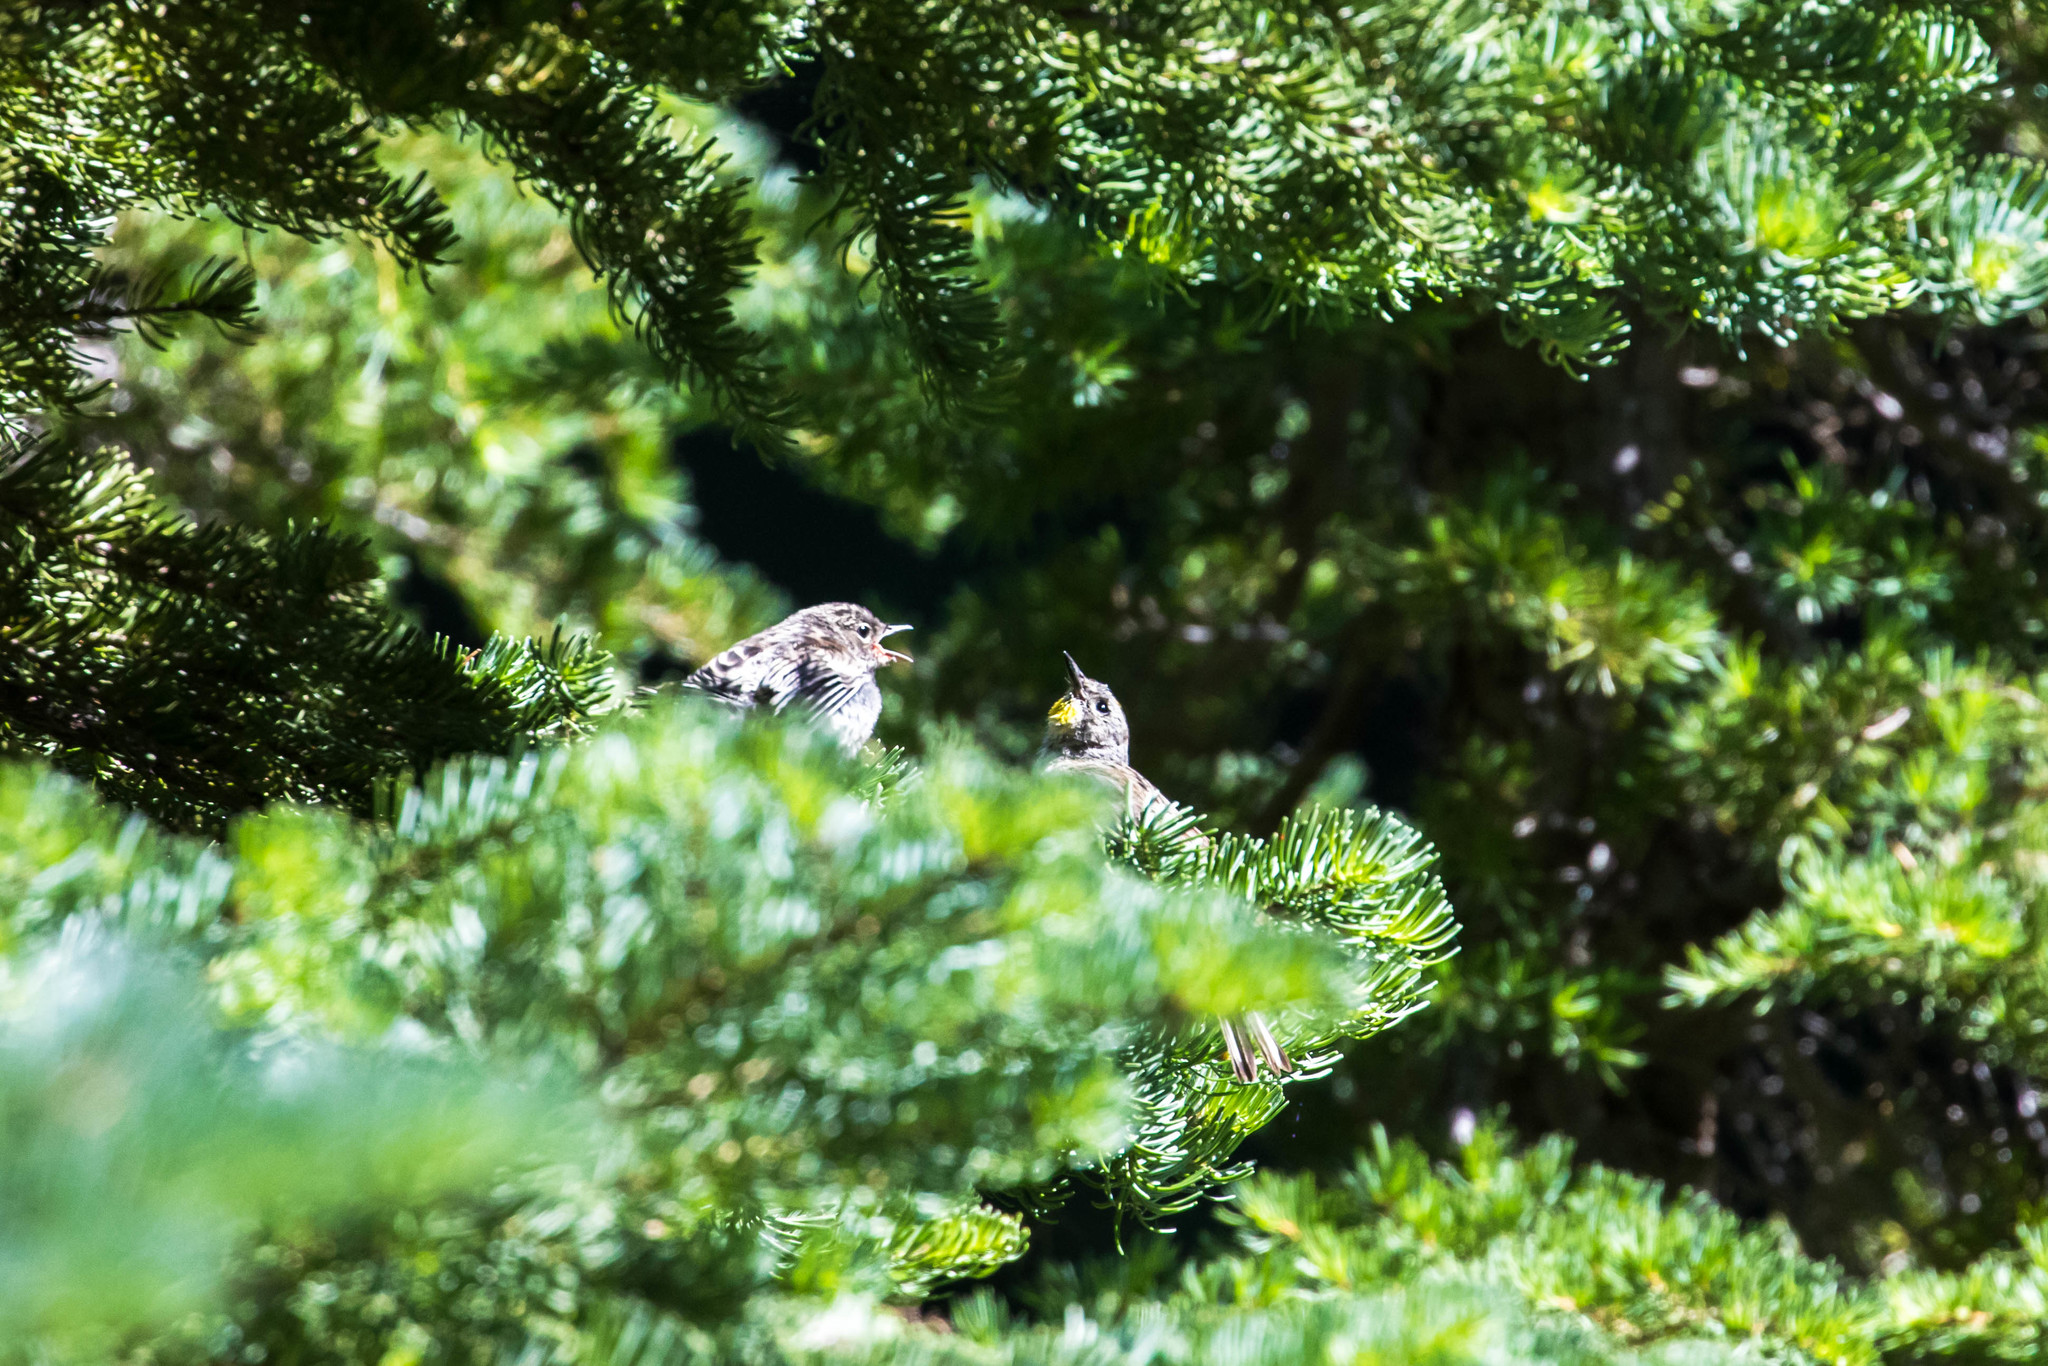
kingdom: Animalia
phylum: Chordata
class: Aves
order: Passeriformes
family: Parulidae
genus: Setophaga
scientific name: Setophaga auduboni
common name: Audubon's warbler
